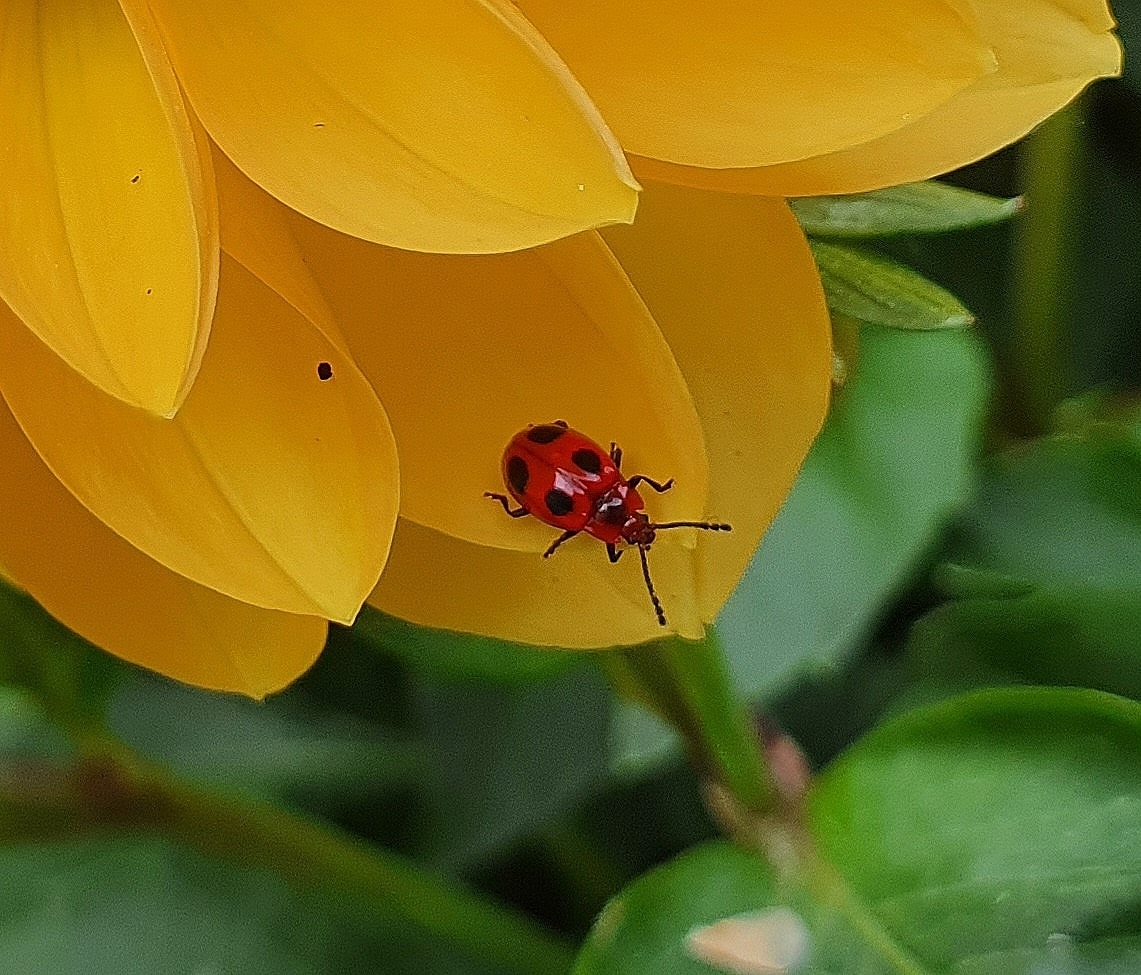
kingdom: Animalia
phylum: Arthropoda
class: Insecta
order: Coleoptera
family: Endomychidae
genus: Endomychus
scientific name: Endomychus coccineus
